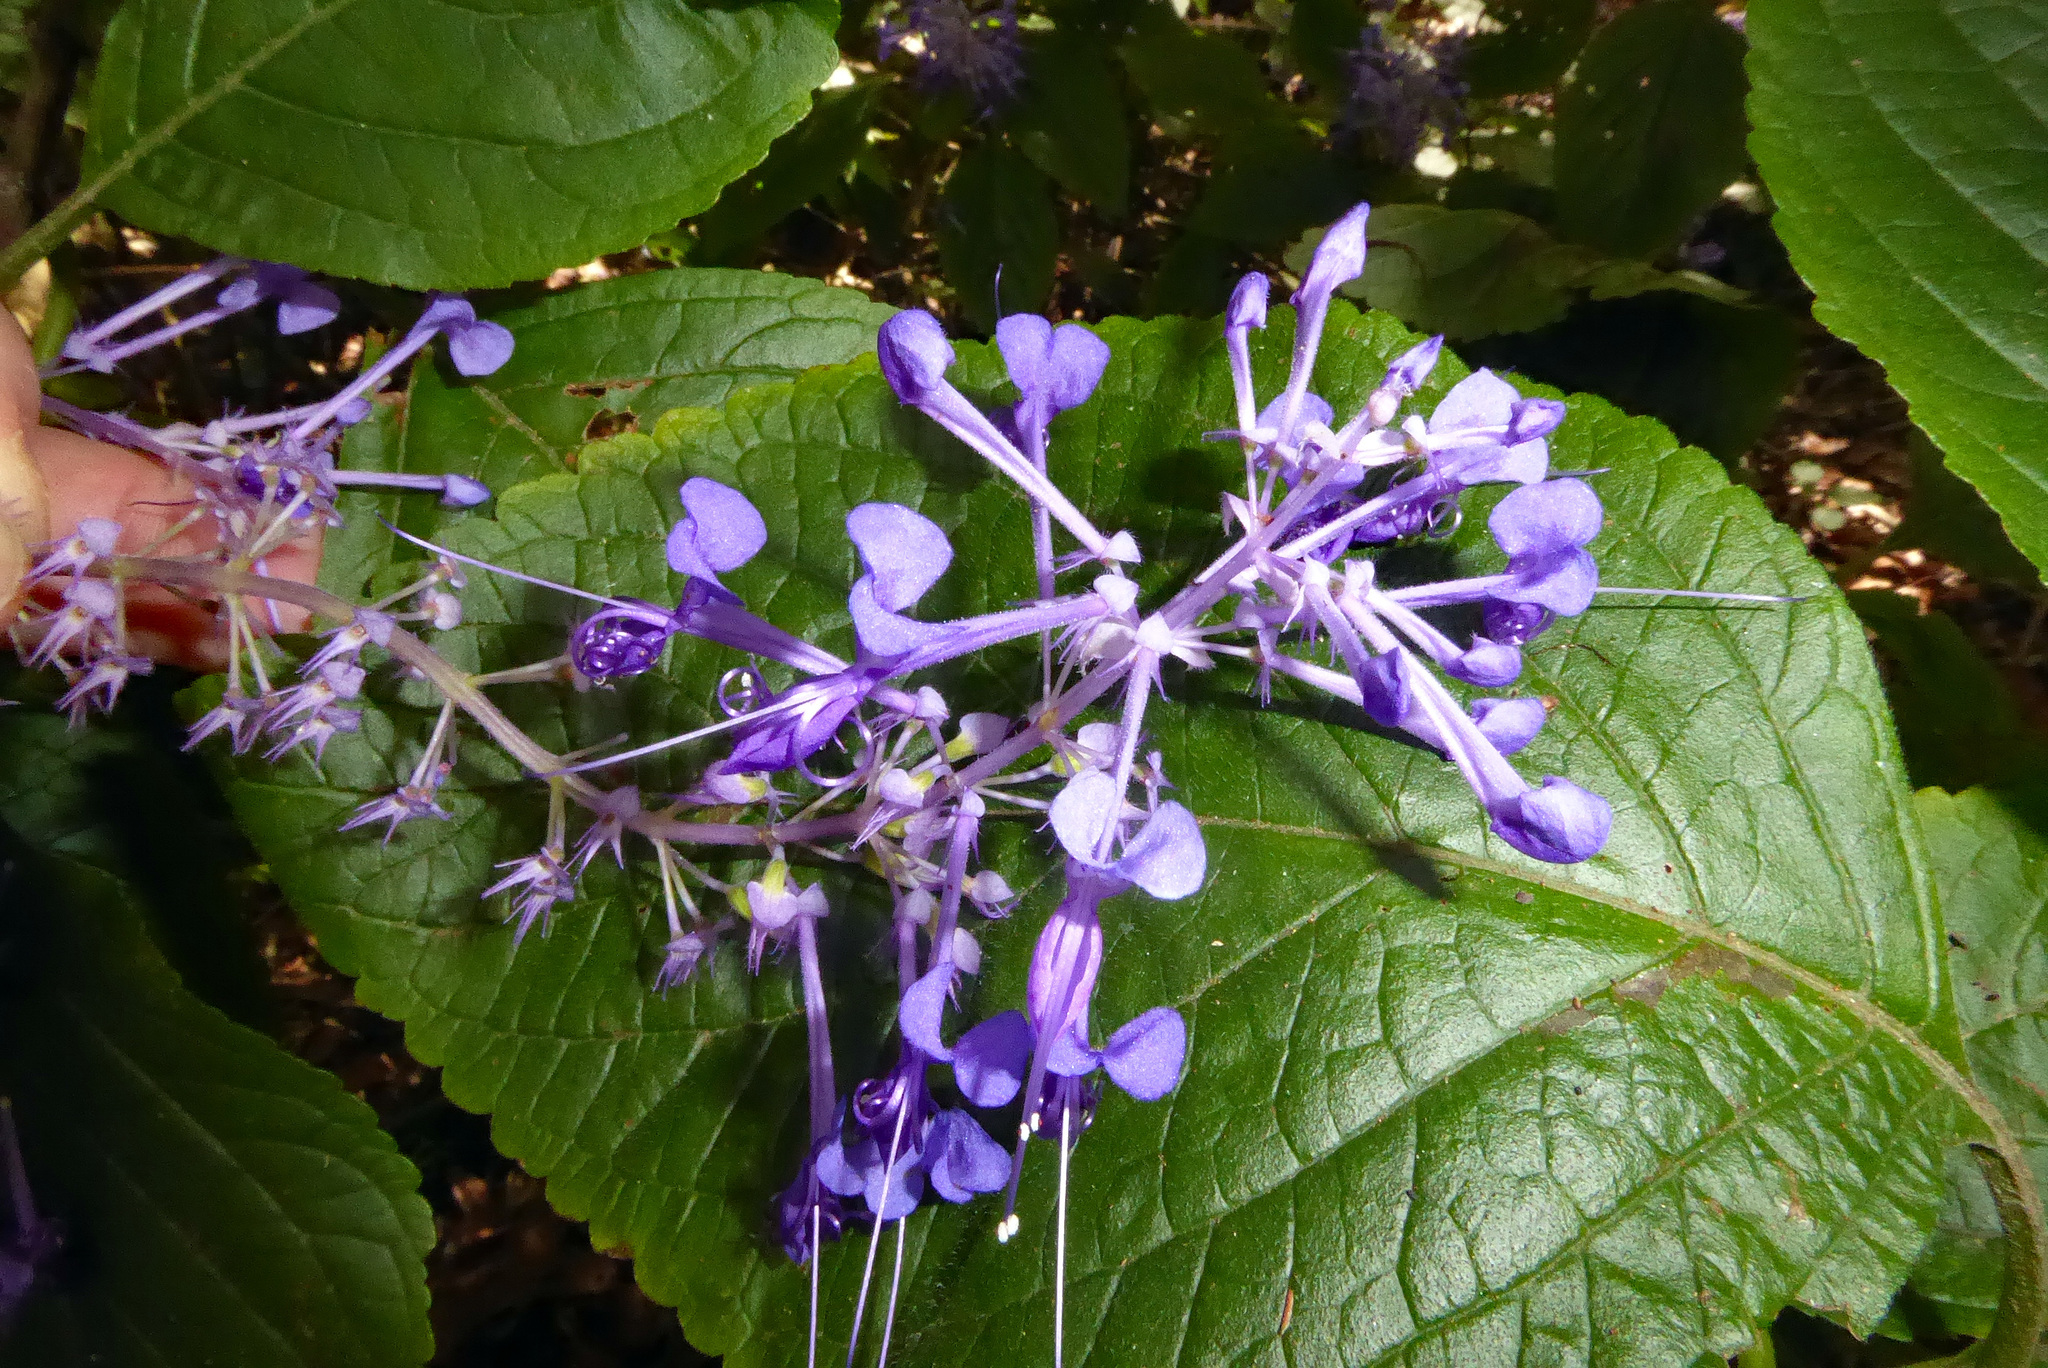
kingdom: Plantae
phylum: Tracheophyta
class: Magnoliopsida
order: Lamiales
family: Lamiaceae
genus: Plectranthus
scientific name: Plectranthus ecklonii
